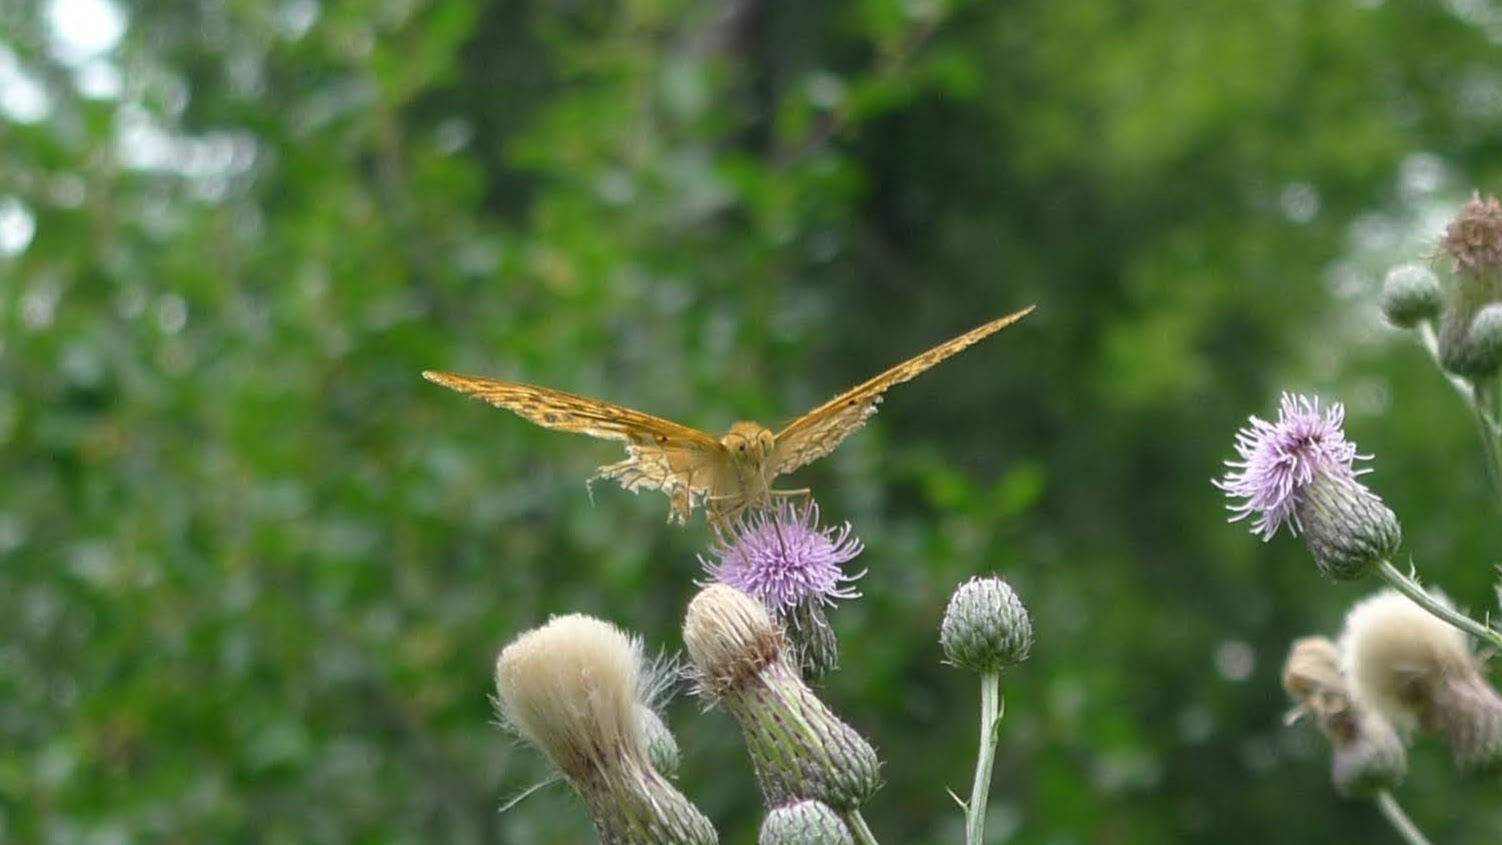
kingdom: Animalia
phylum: Arthropoda
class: Insecta
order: Lepidoptera
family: Nymphalidae
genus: Argynnis
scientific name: Argynnis paphia
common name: Silver-washed fritillary
